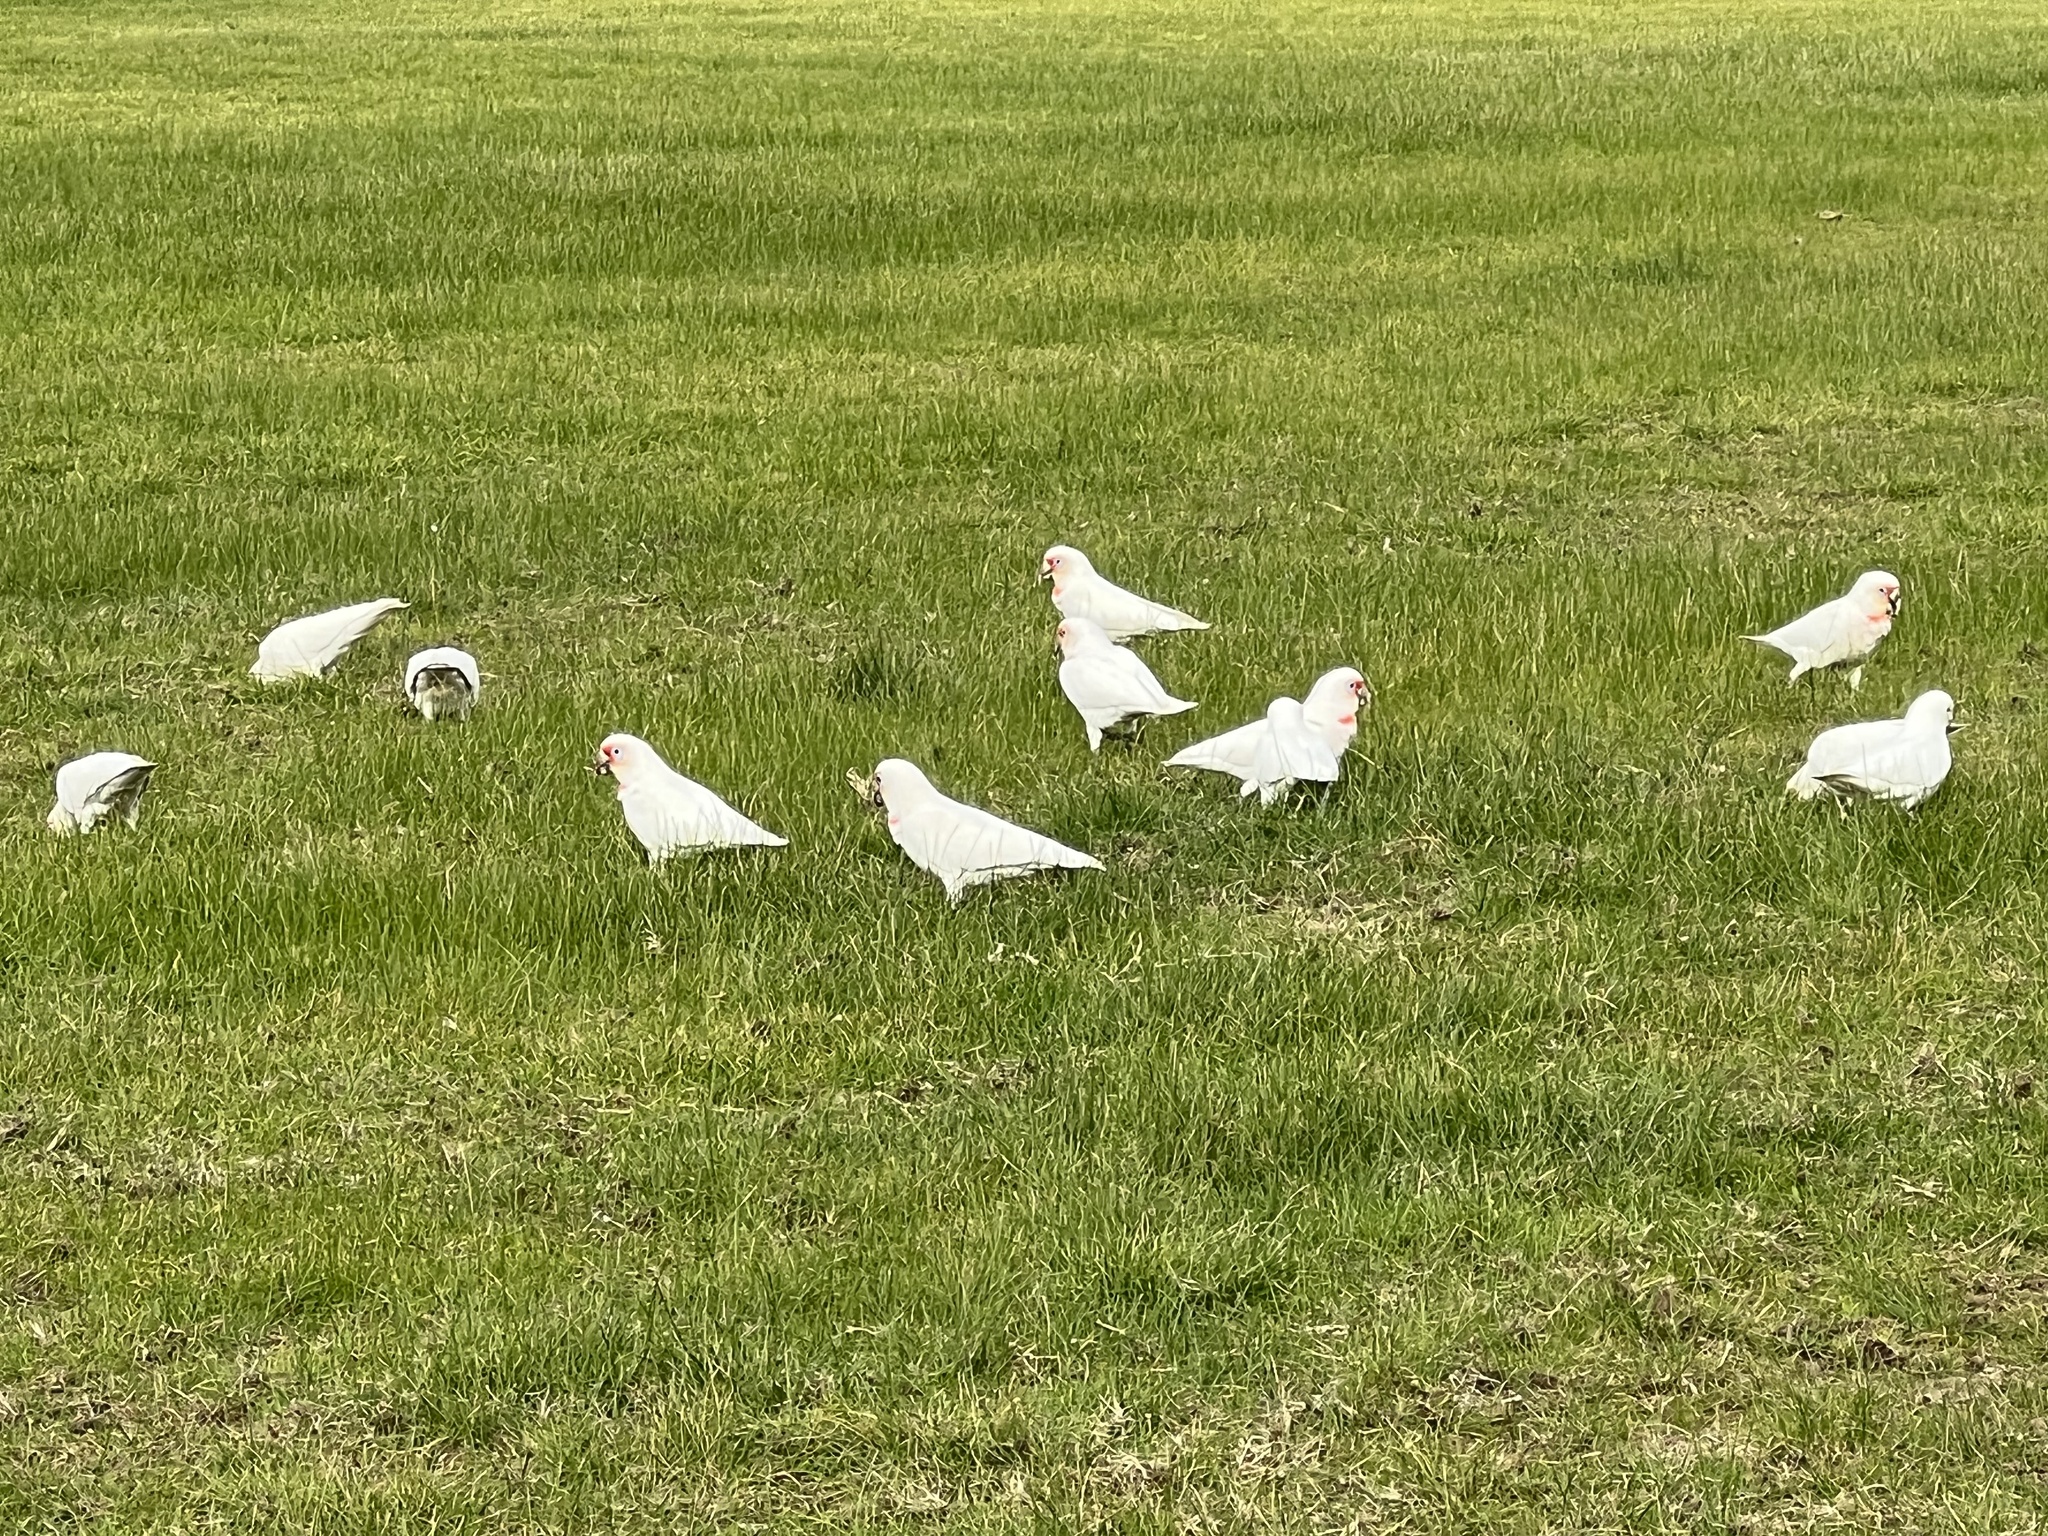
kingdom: Animalia
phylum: Chordata
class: Aves
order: Psittaciformes
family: Psittacidae
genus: Cacatua
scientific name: Cacatua tenuirostris
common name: Long-billed corella
